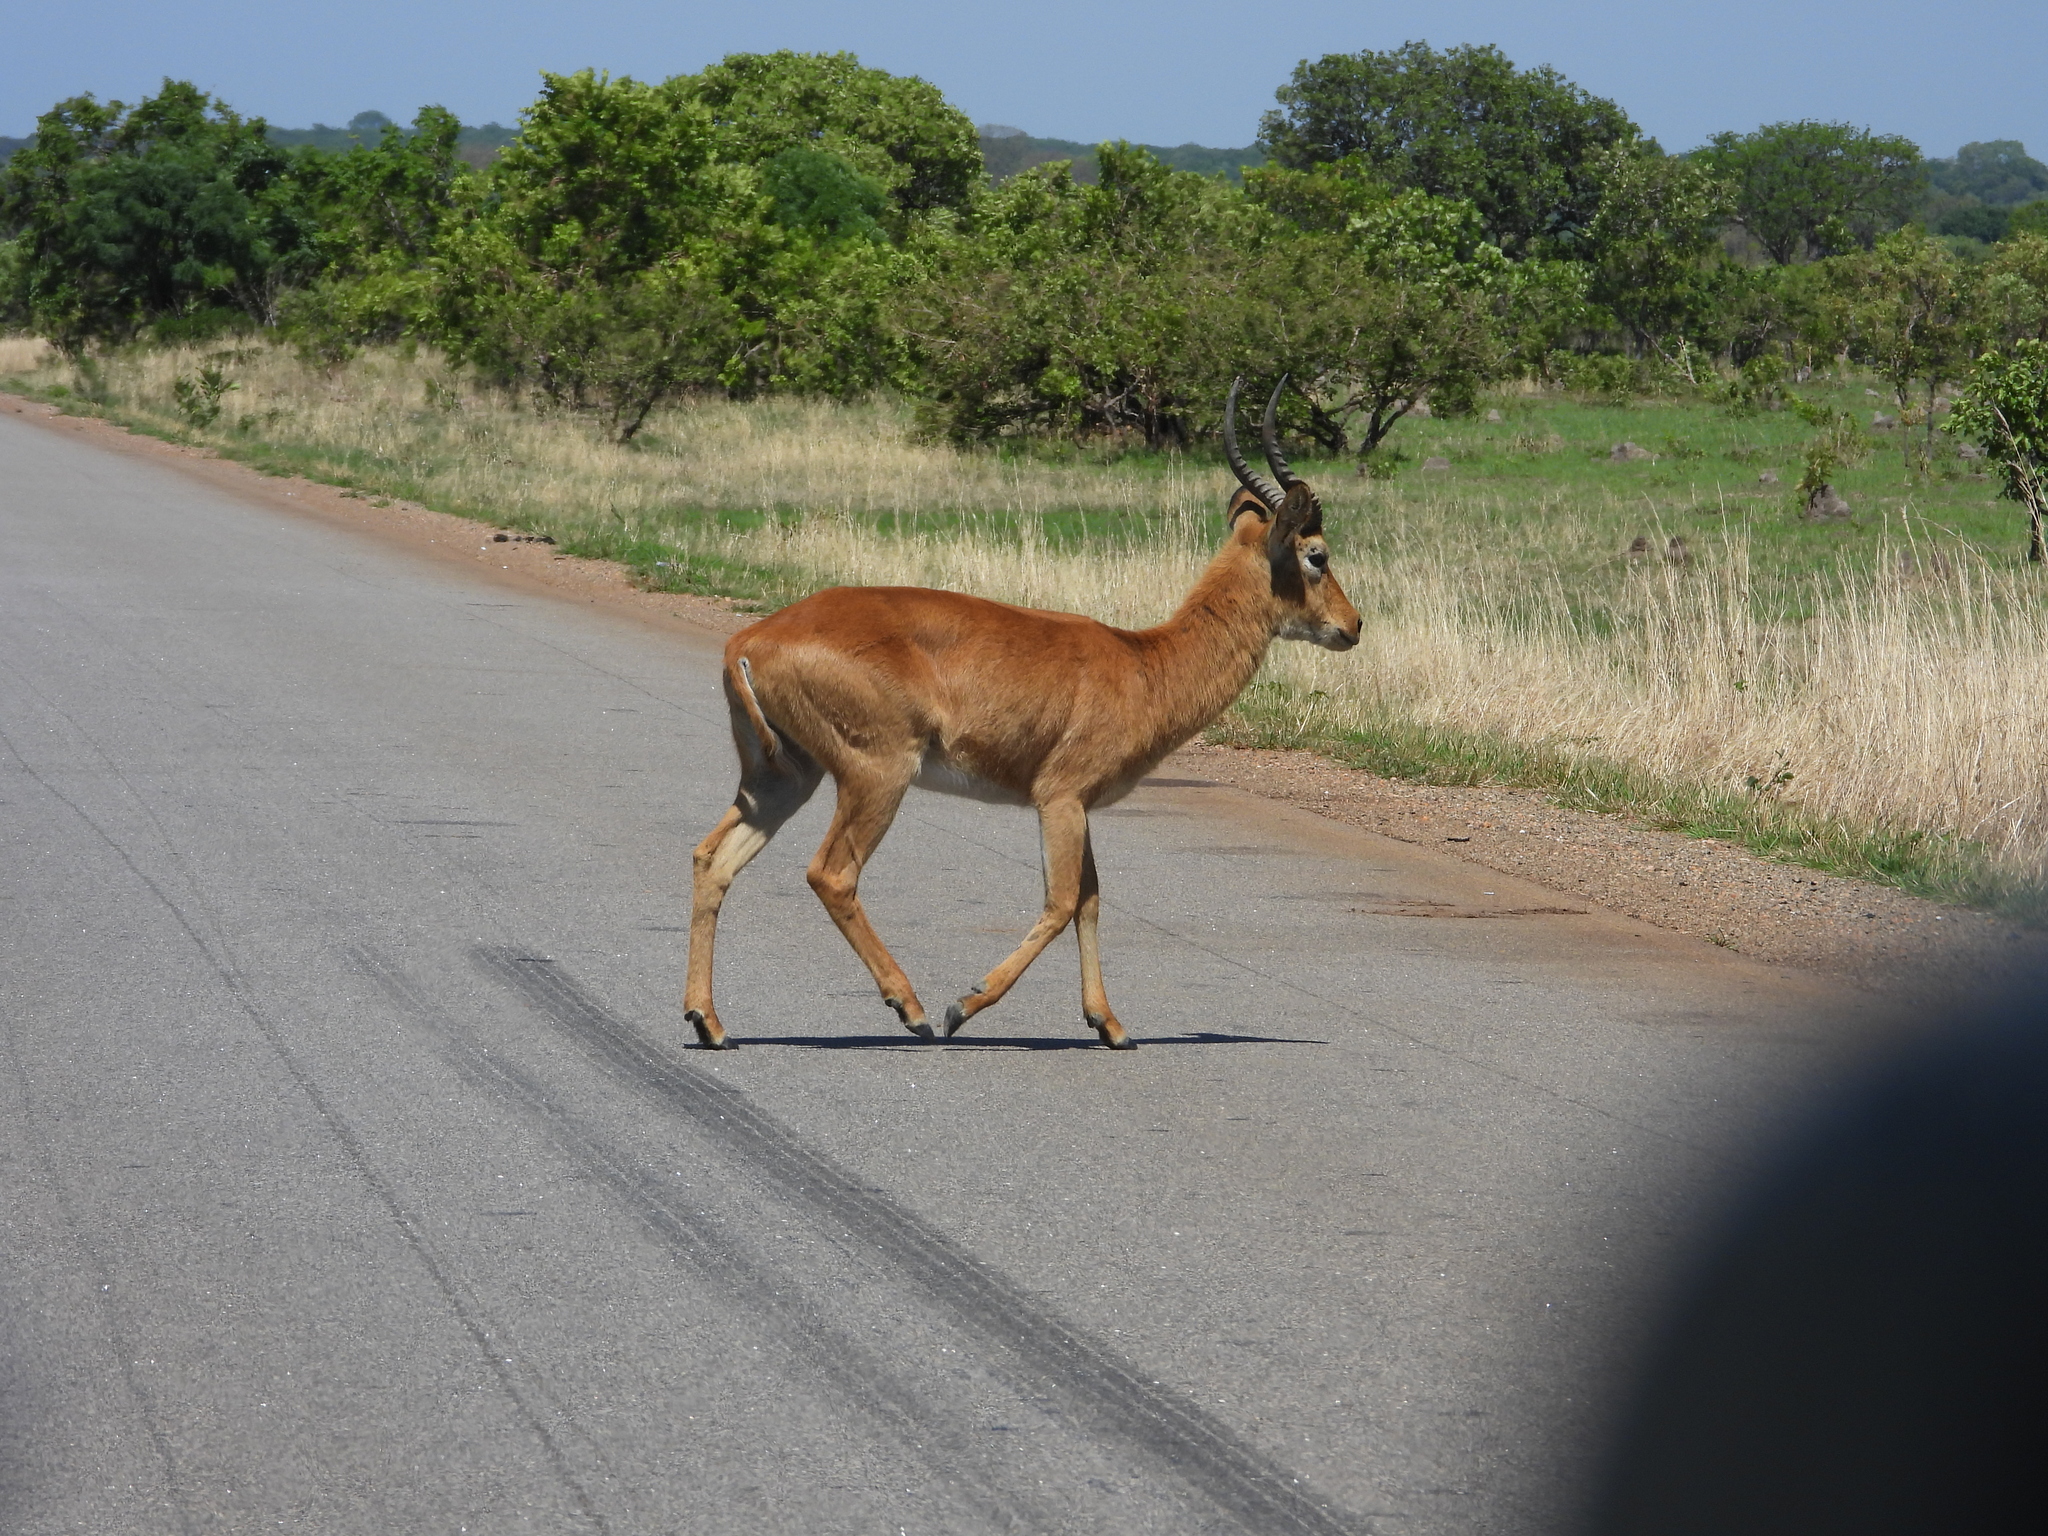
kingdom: Animalia
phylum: Chordata
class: Mammalia
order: Artiodactyla
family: Bovidae
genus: Kobus
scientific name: Kobus vardonii
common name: Puku
